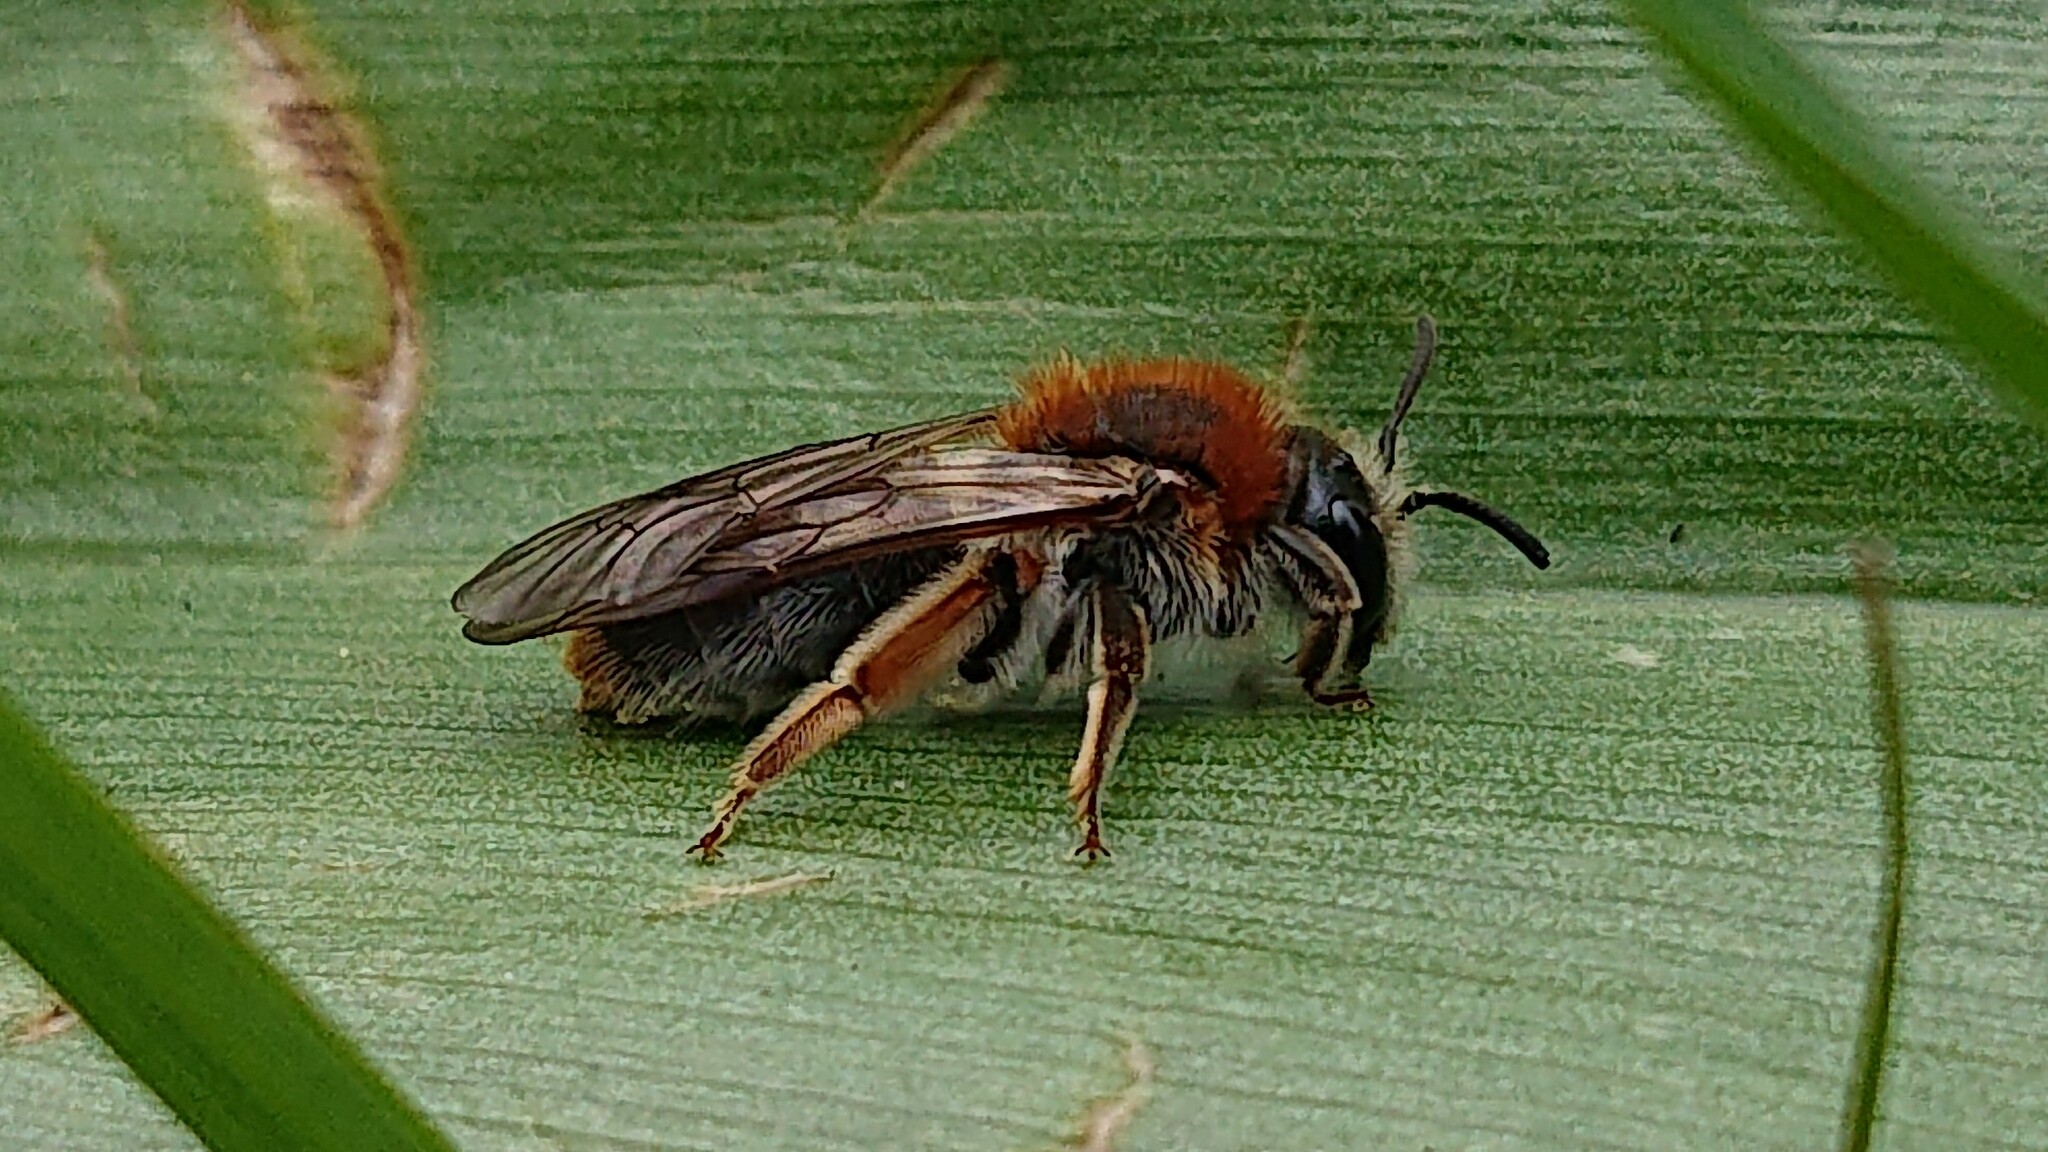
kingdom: Animalia
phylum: Arthropoda
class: Insecta
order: Hymenoptera
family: Andrenidae
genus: Andrena
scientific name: Andrena haemorrhoa
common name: Early mining bee
